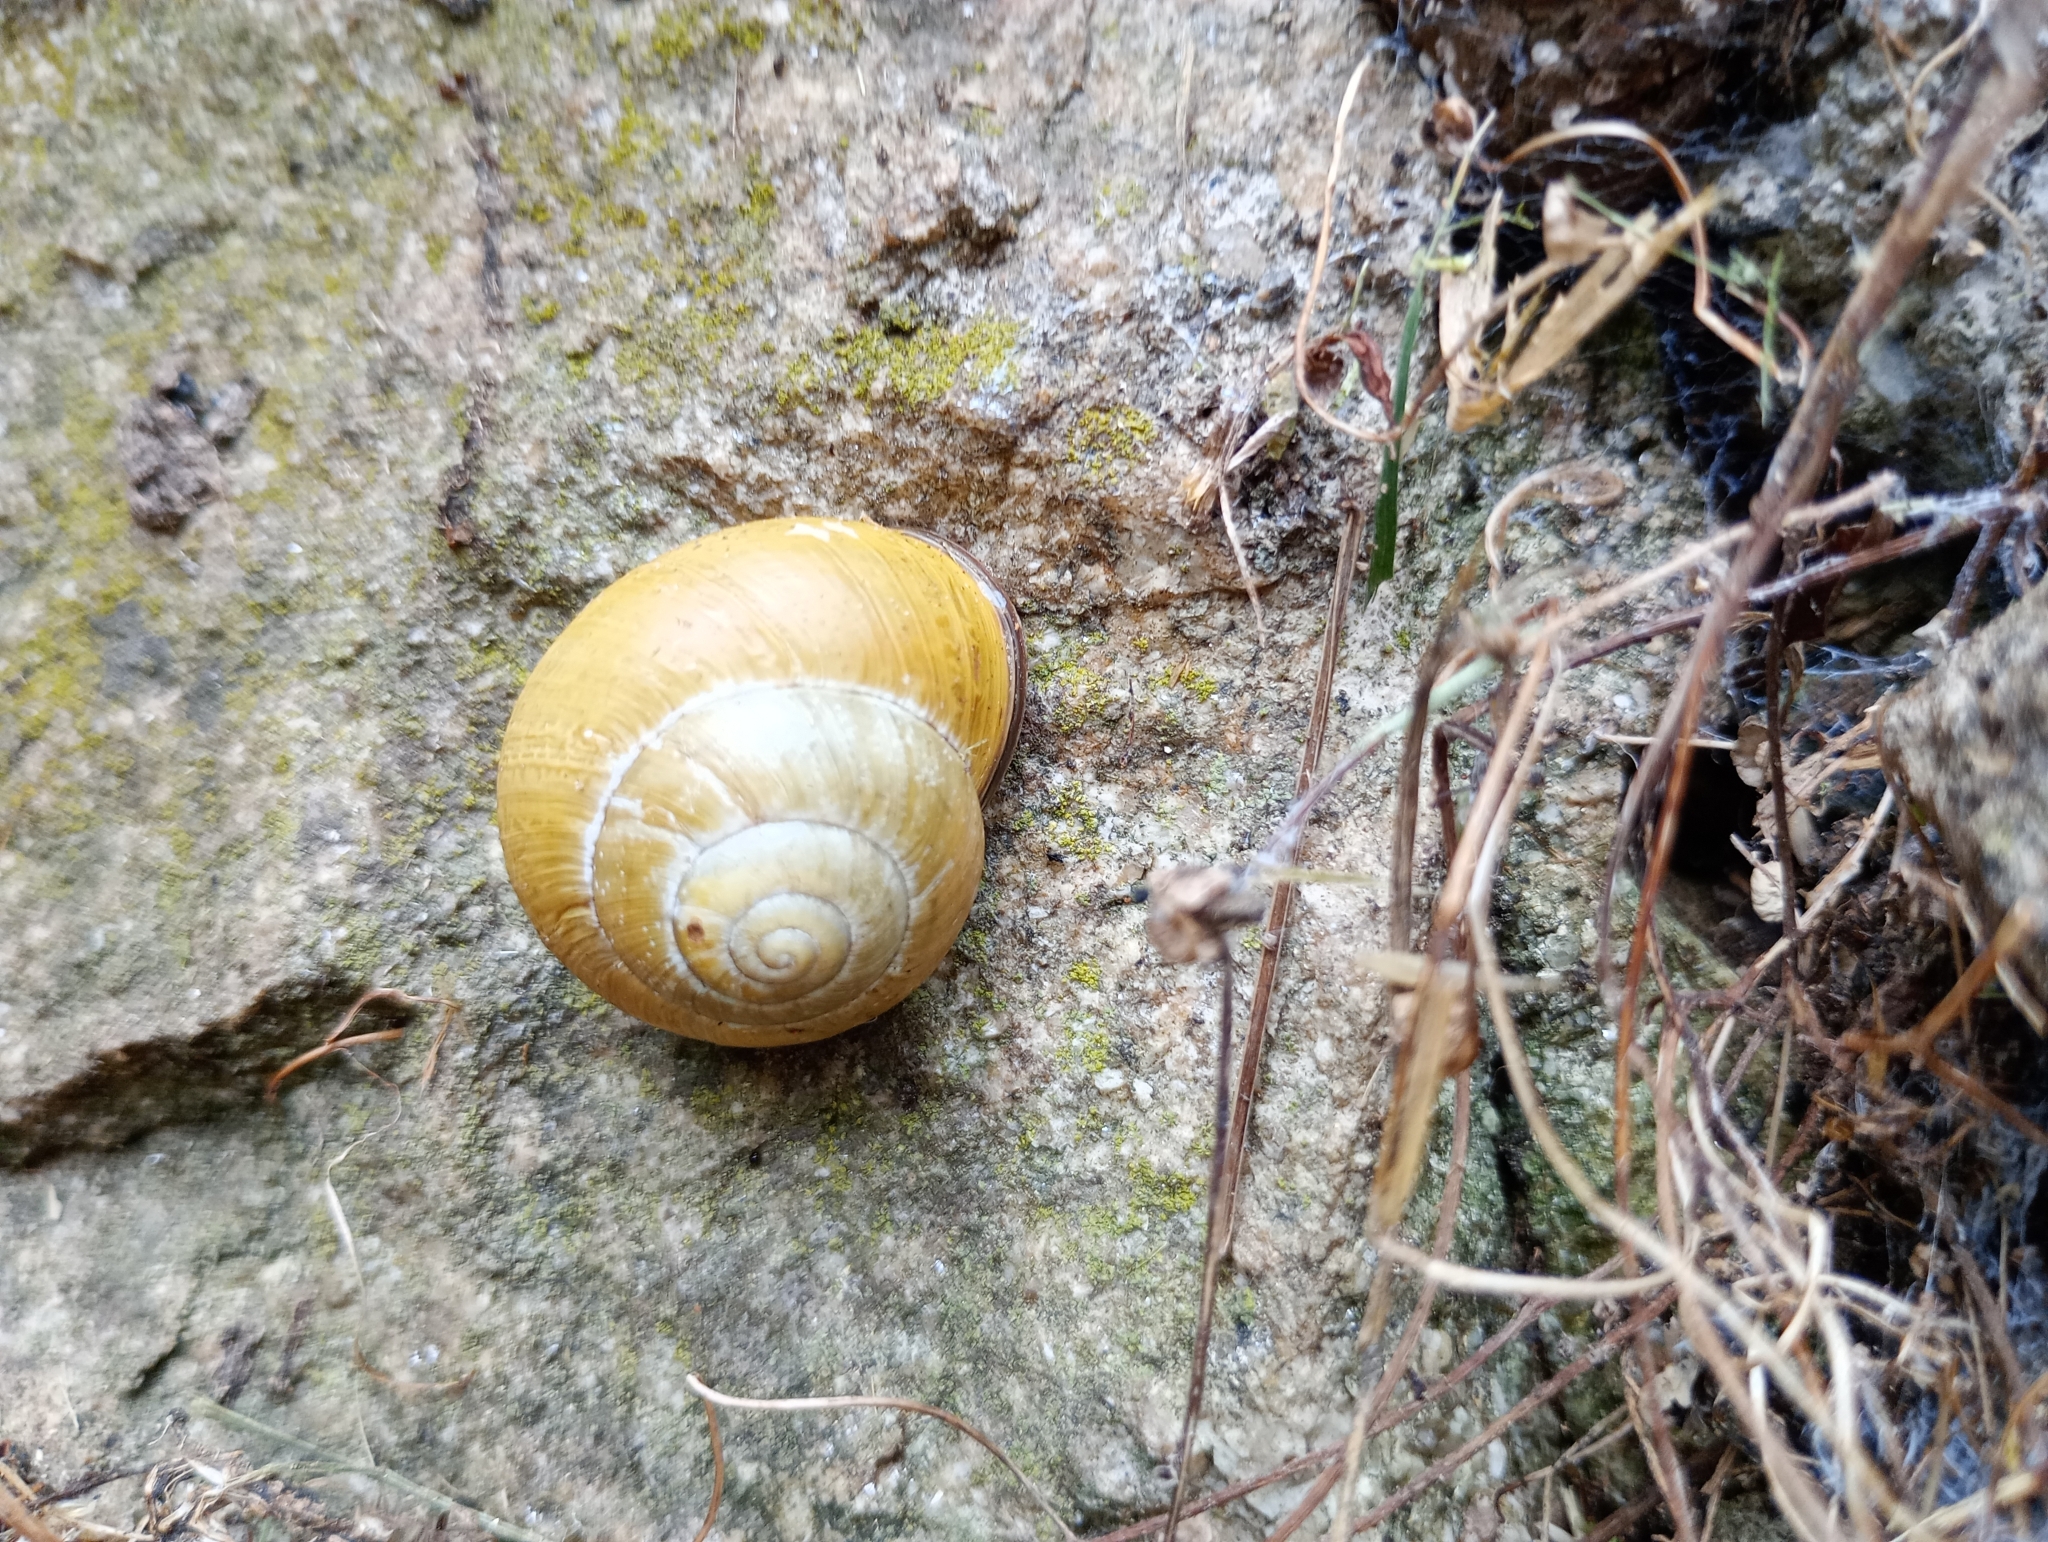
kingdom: Animalia
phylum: Mollusca
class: Gastropoda
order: Stylommatophora
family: Helicidae
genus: Cepaea
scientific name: Cepaea nemoralis
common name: Grovesnail
